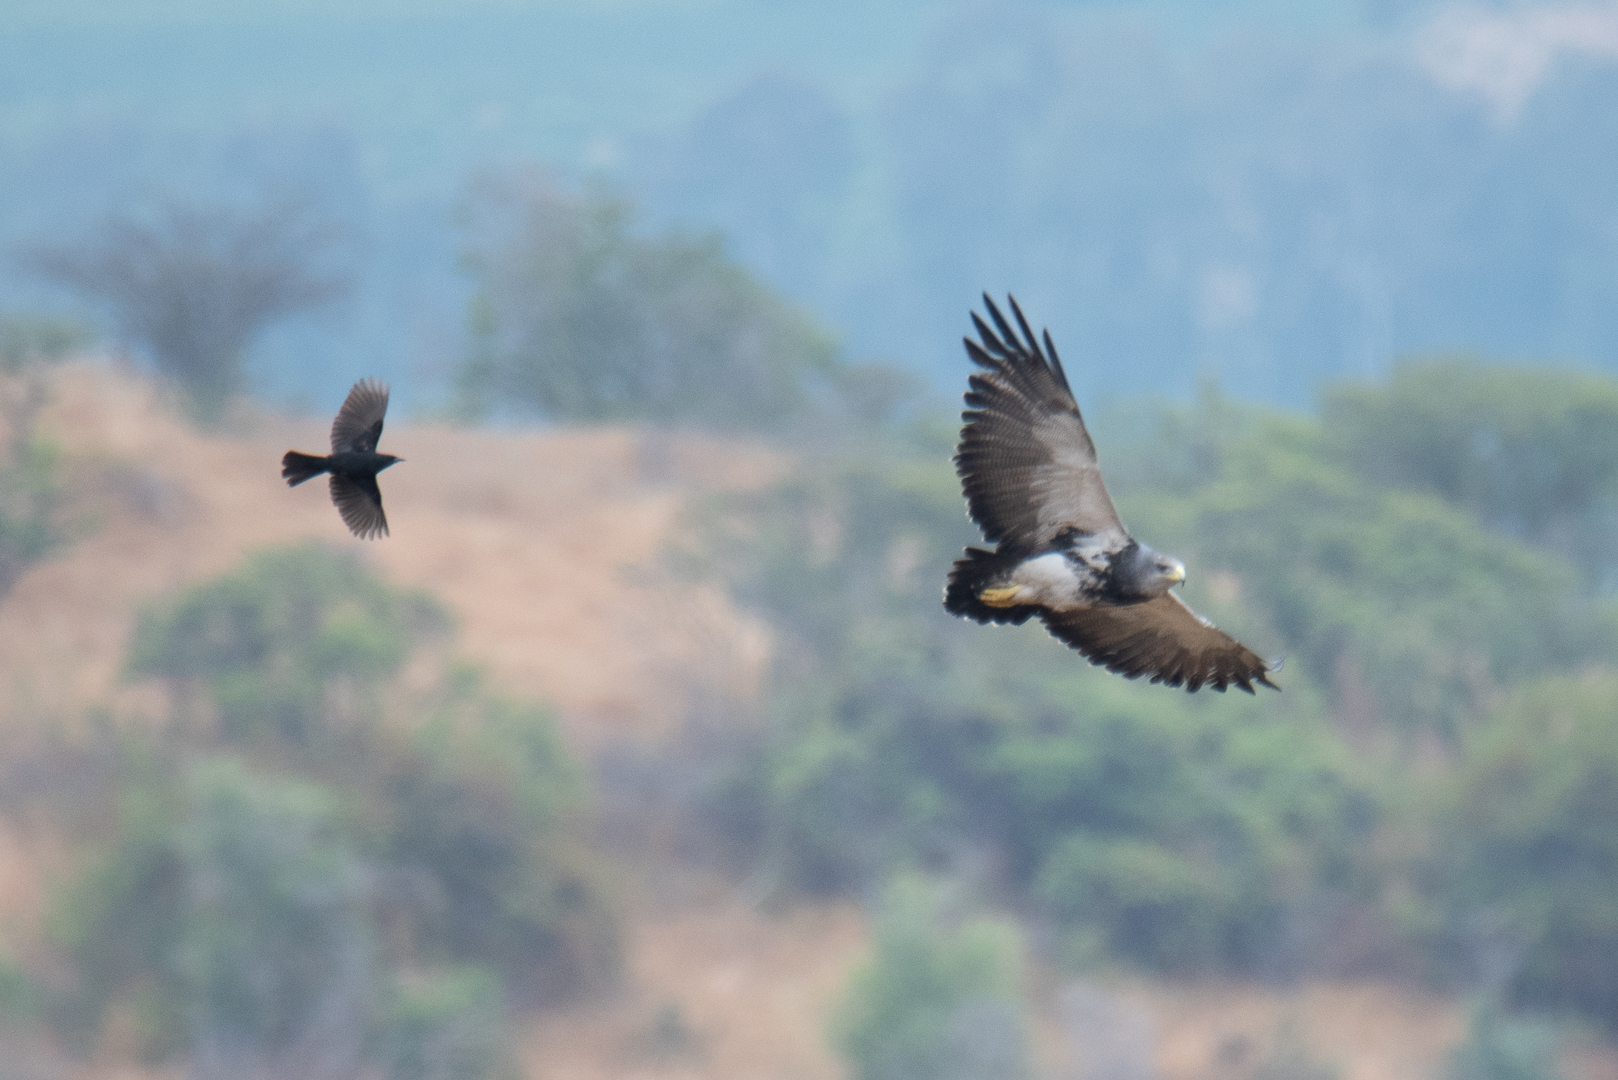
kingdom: Animalia
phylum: Chordata
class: Aves
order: Accipitriformes
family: Accipitridae
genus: Geranoaetus
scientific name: Geranoaetus melanoleucus
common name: Black-chested buzzard-eagle
